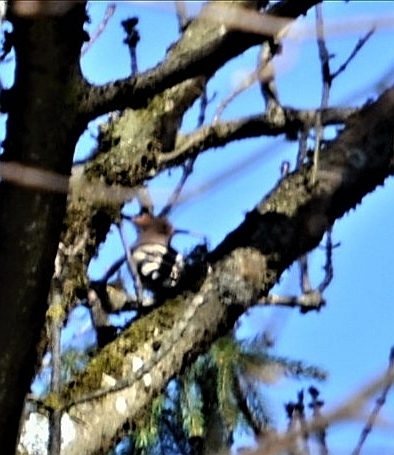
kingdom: Animalia
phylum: Chordata
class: Aves
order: Bucerotiformes
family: Upupidae
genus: Upupa
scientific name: Upupa epops
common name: Eurasian hoopoe
